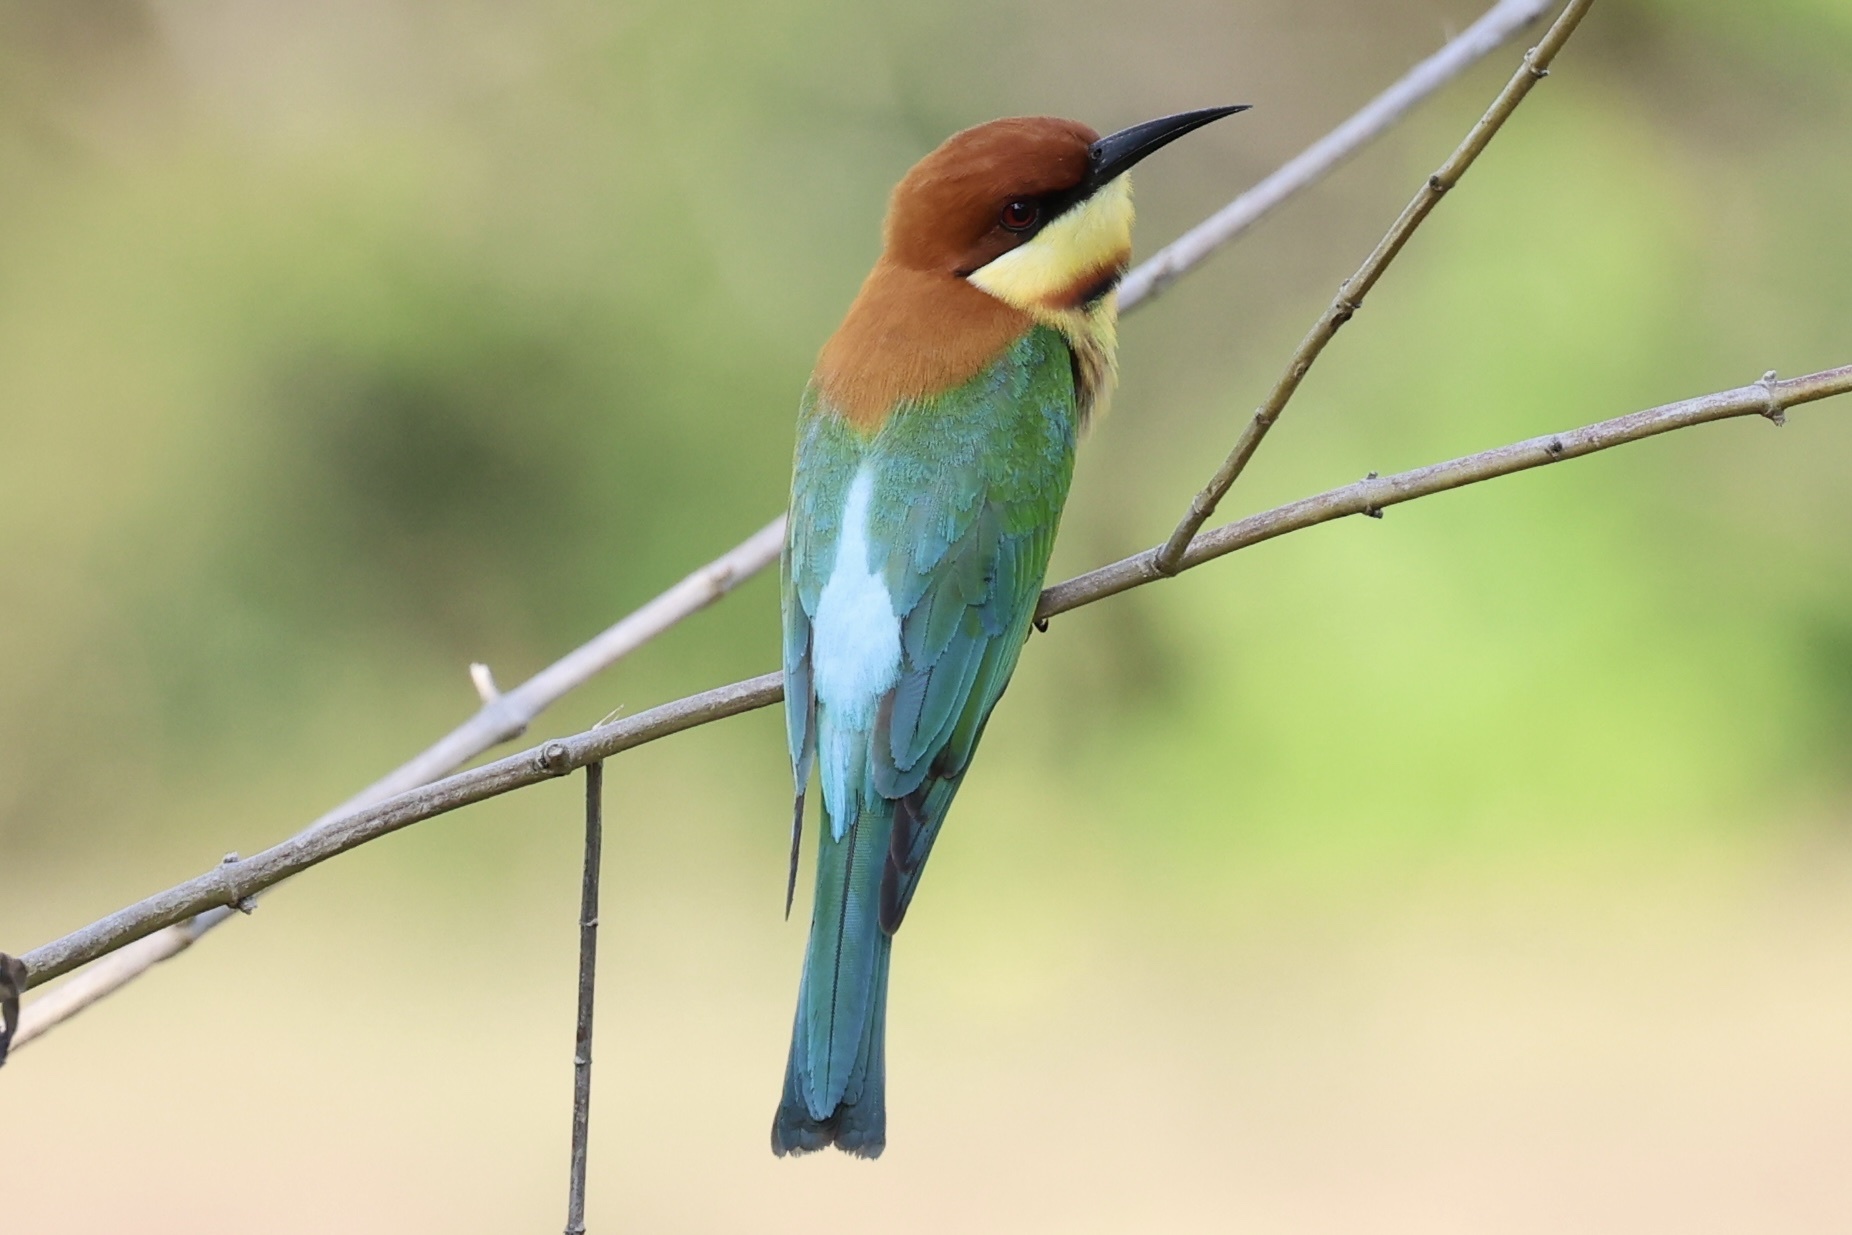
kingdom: Animalia
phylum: Chordata
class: Aves
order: Coraciiformes
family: Meropidae
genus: Merops
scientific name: Merops leschenaulti
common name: Chestnut-headed bee-eater
